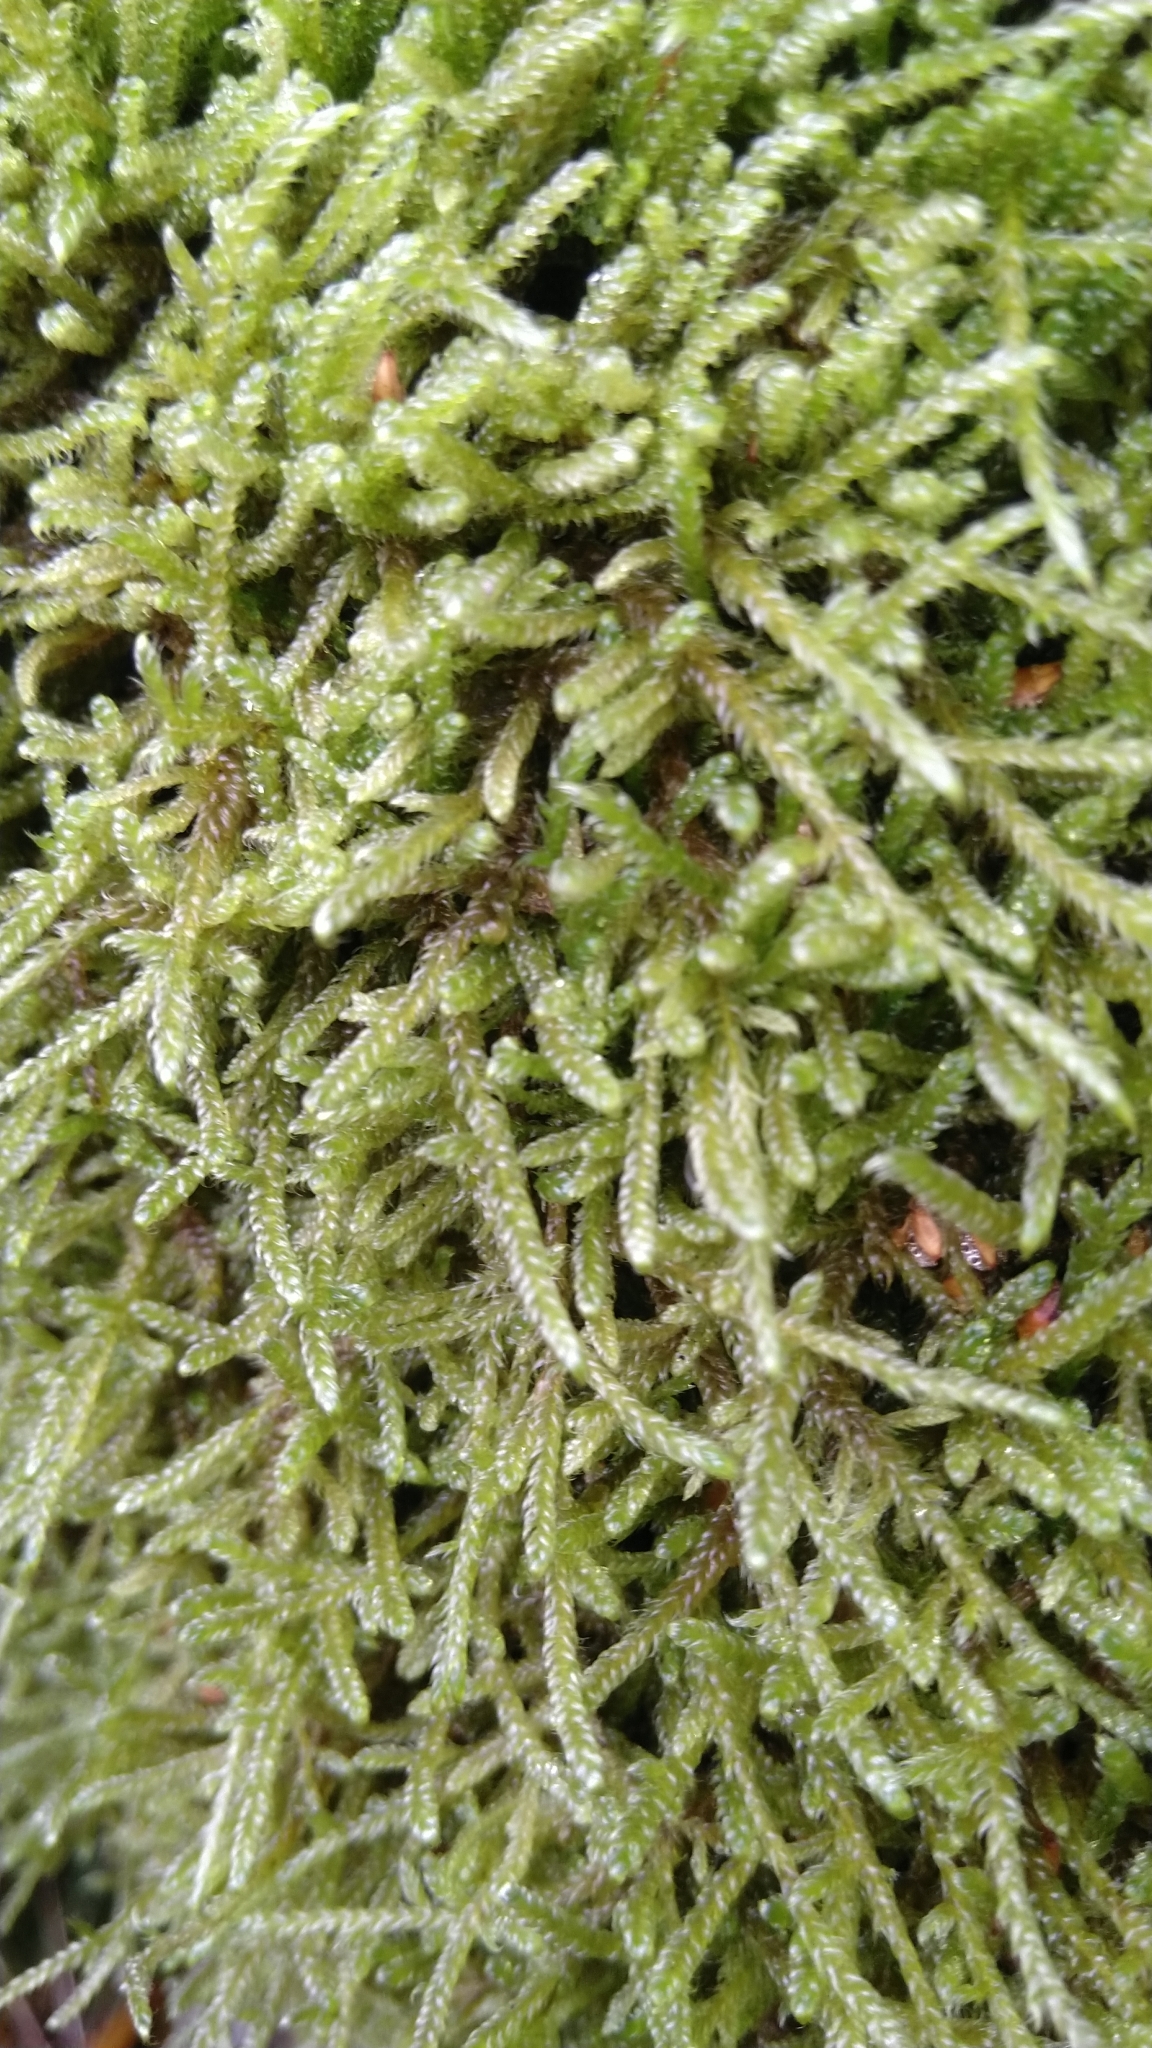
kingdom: Plantae
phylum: Bryophyta
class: Bryopsida
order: Hypnales
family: Hypnaceae
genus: Hypnum
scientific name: Hypnum cupressiforme
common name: Cypress-leaved plait-moss
